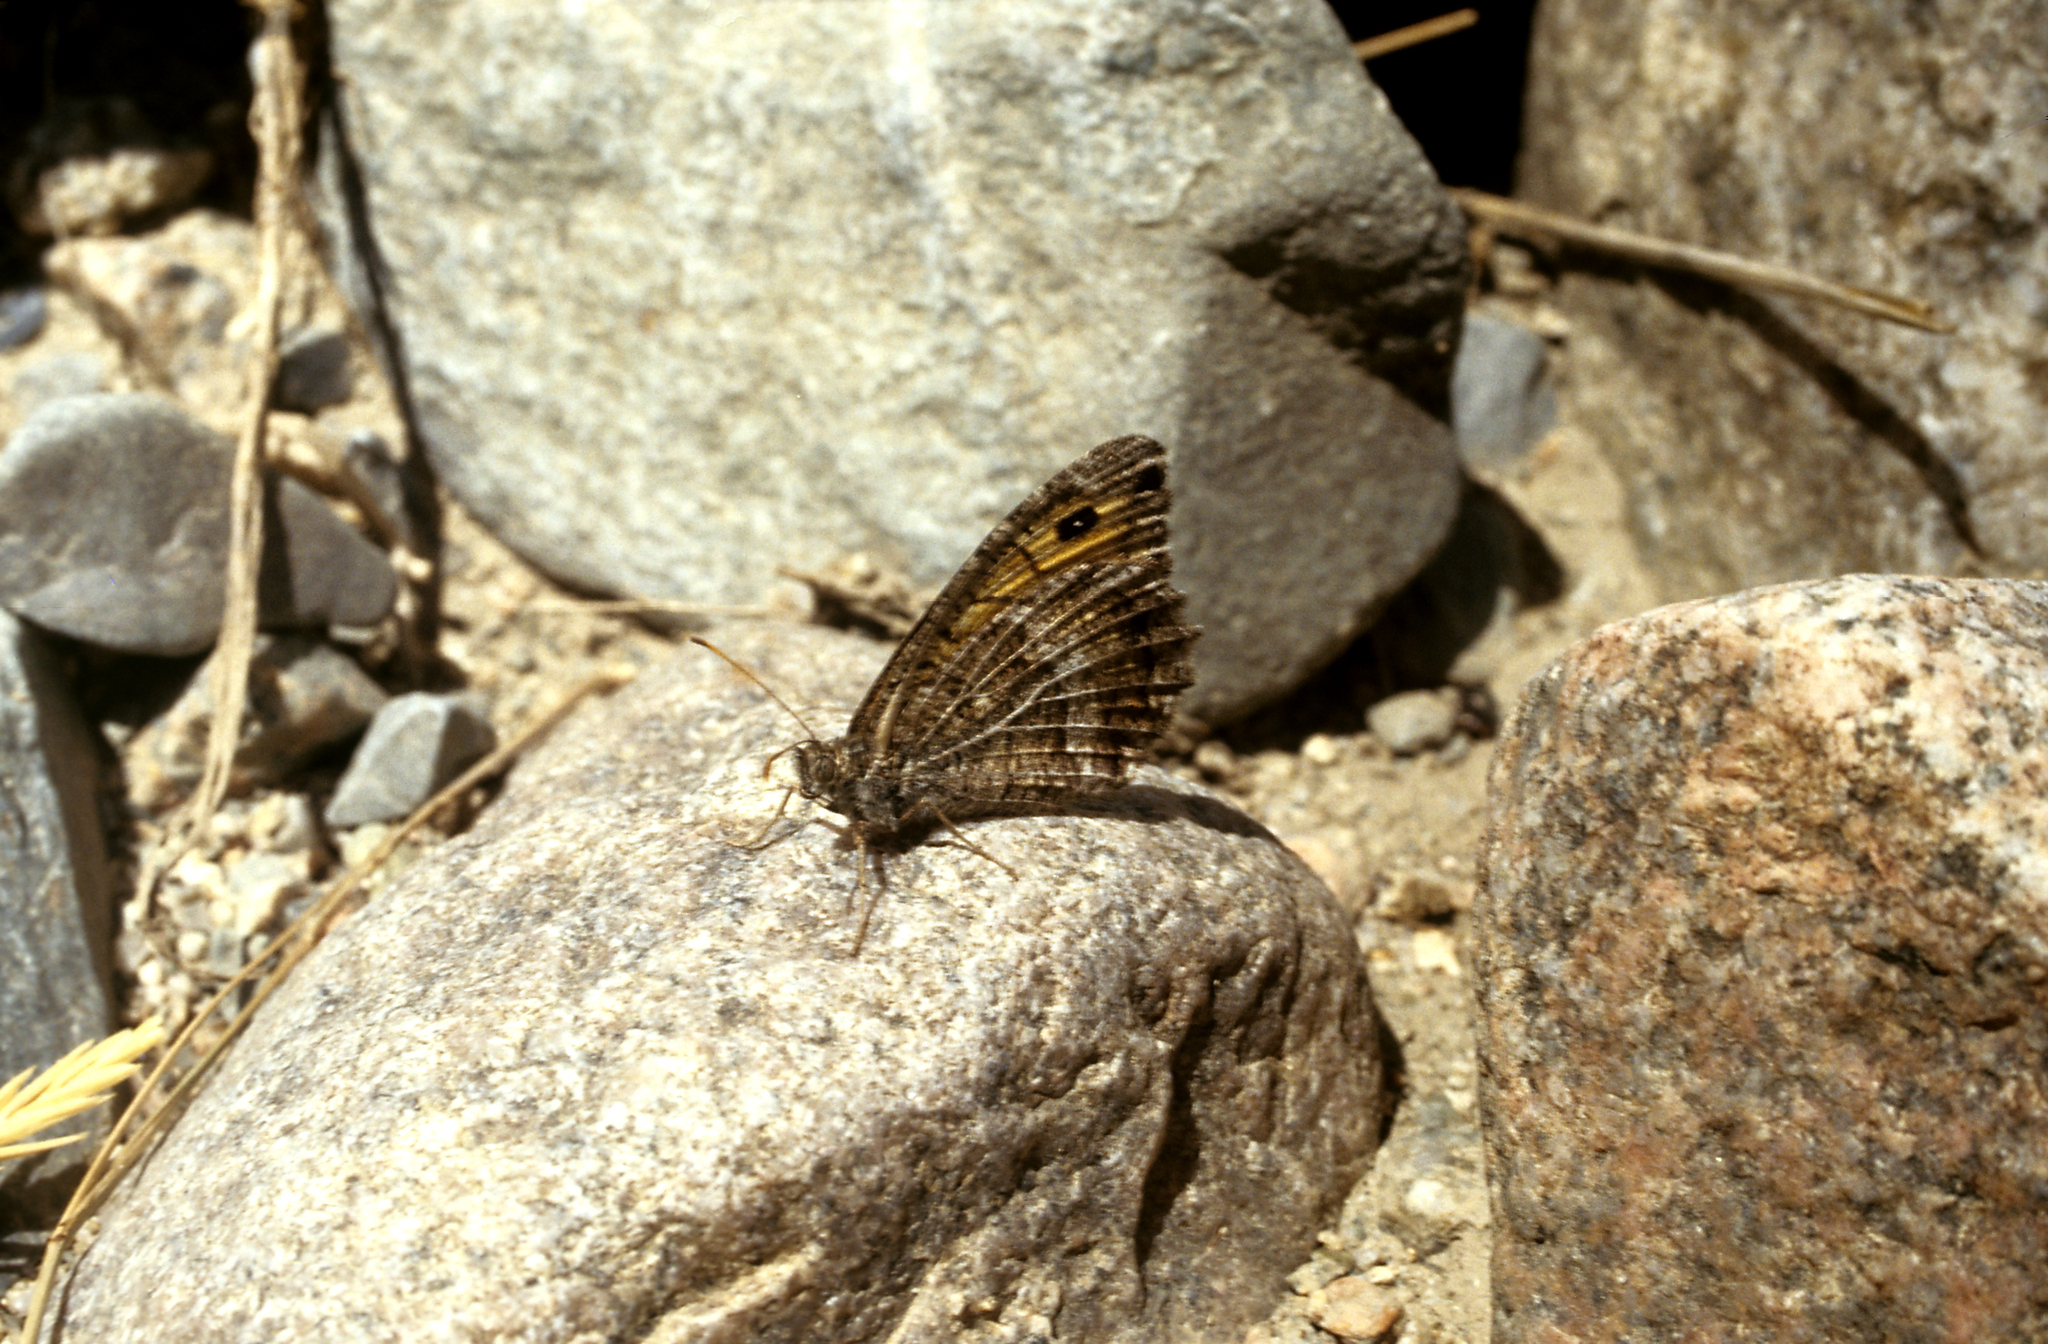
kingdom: Animalia
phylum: Arthropoda
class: Insecta
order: Lepidoptera
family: Nymphalidae
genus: Arethusana
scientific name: Arethusana arethusa
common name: False grayling
